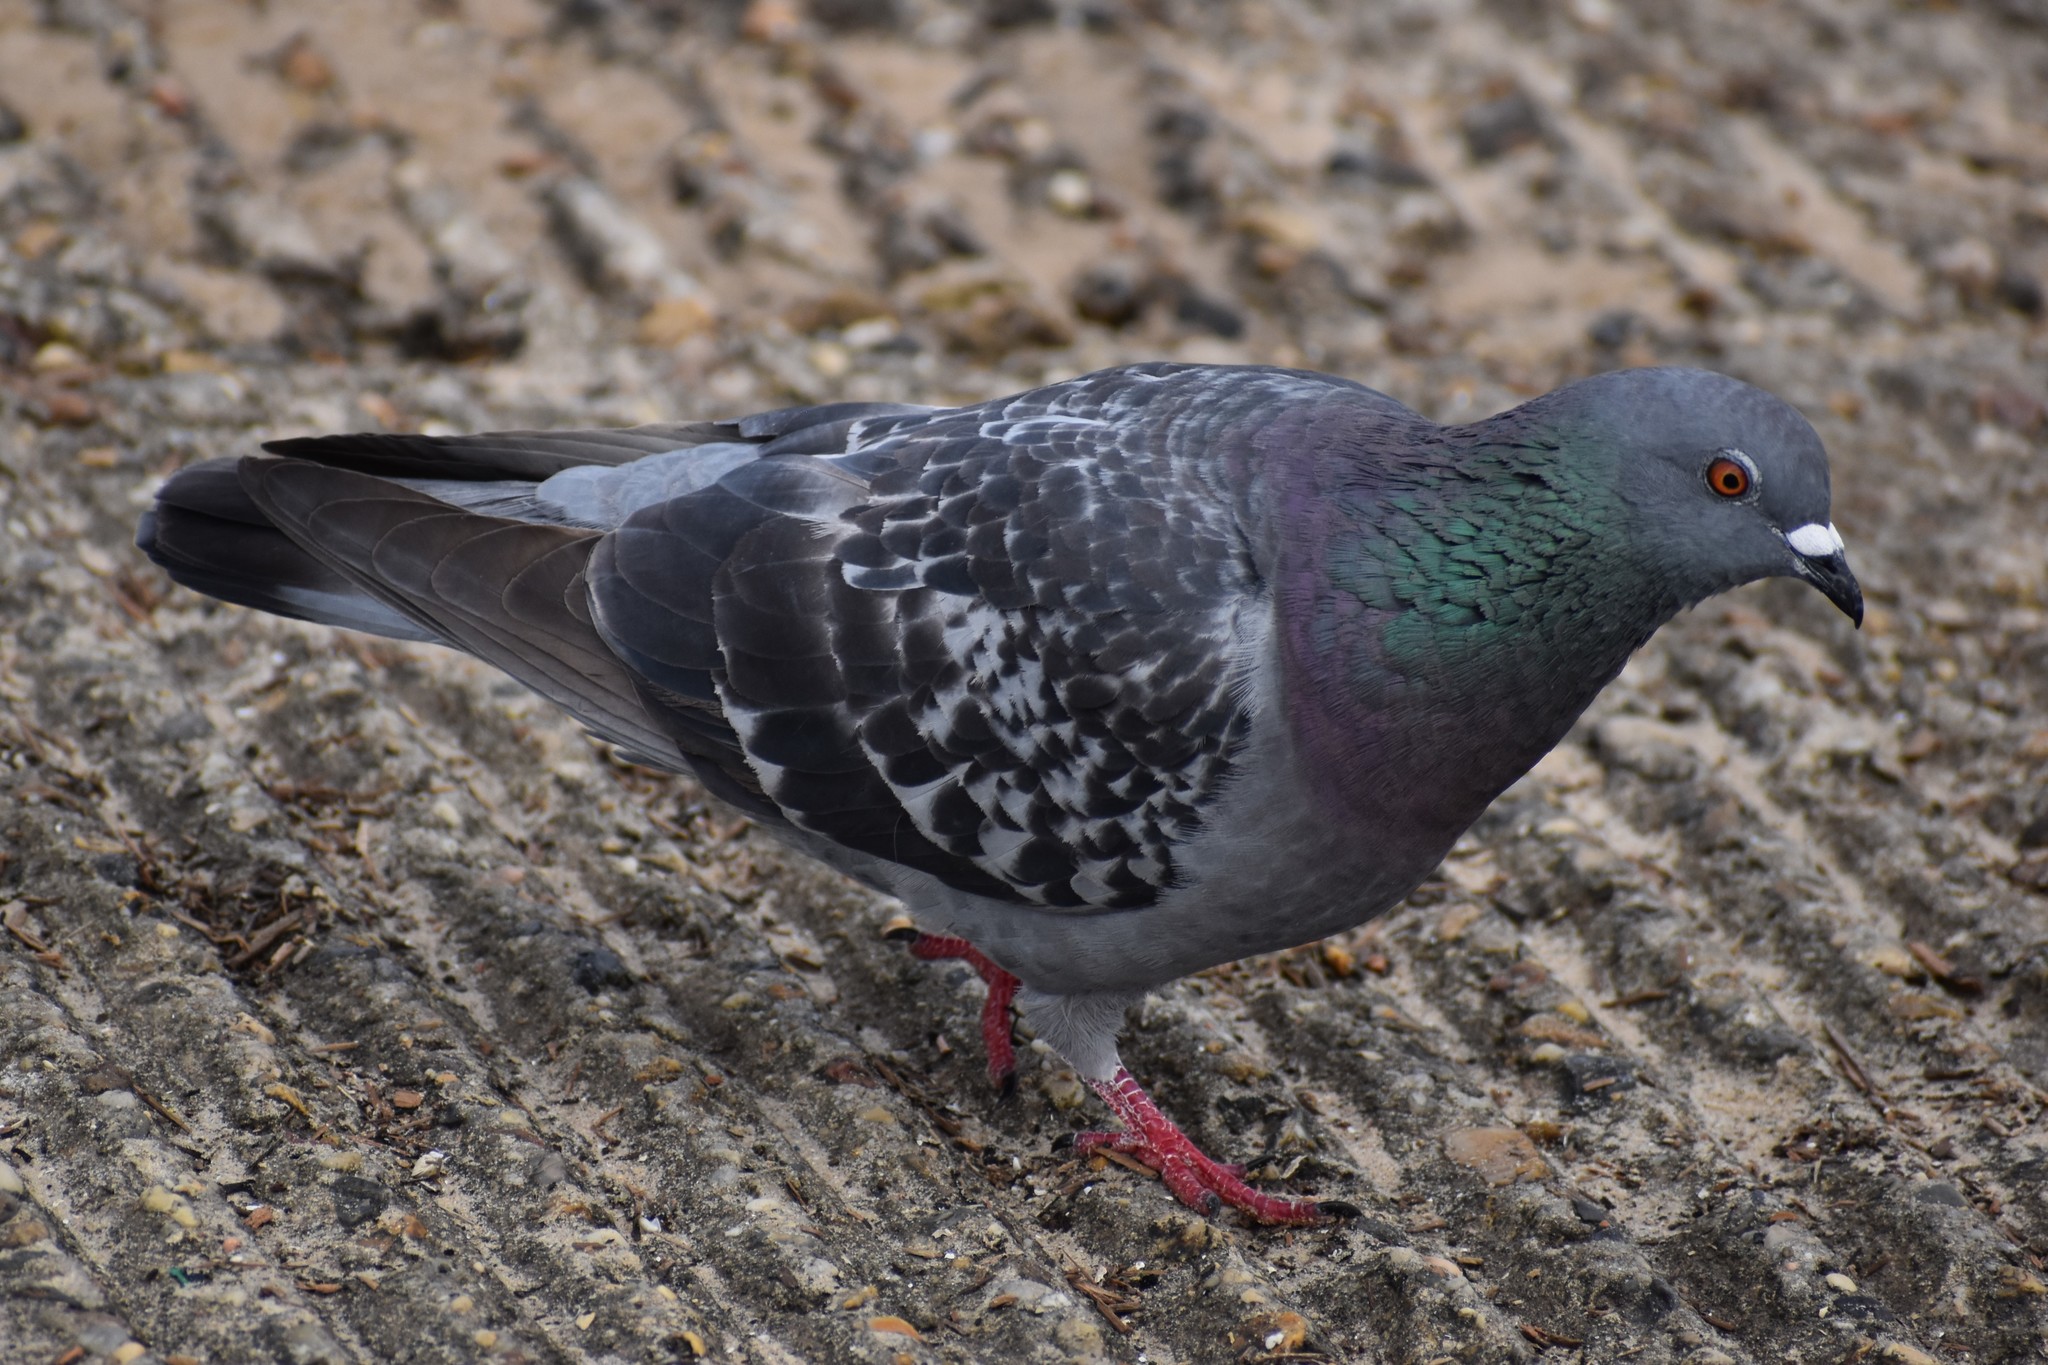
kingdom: Animalia
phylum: Chordata
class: Aves
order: Columbiformes
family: Columbidae
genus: Columba
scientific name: Columba livia
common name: Rock pigeon
